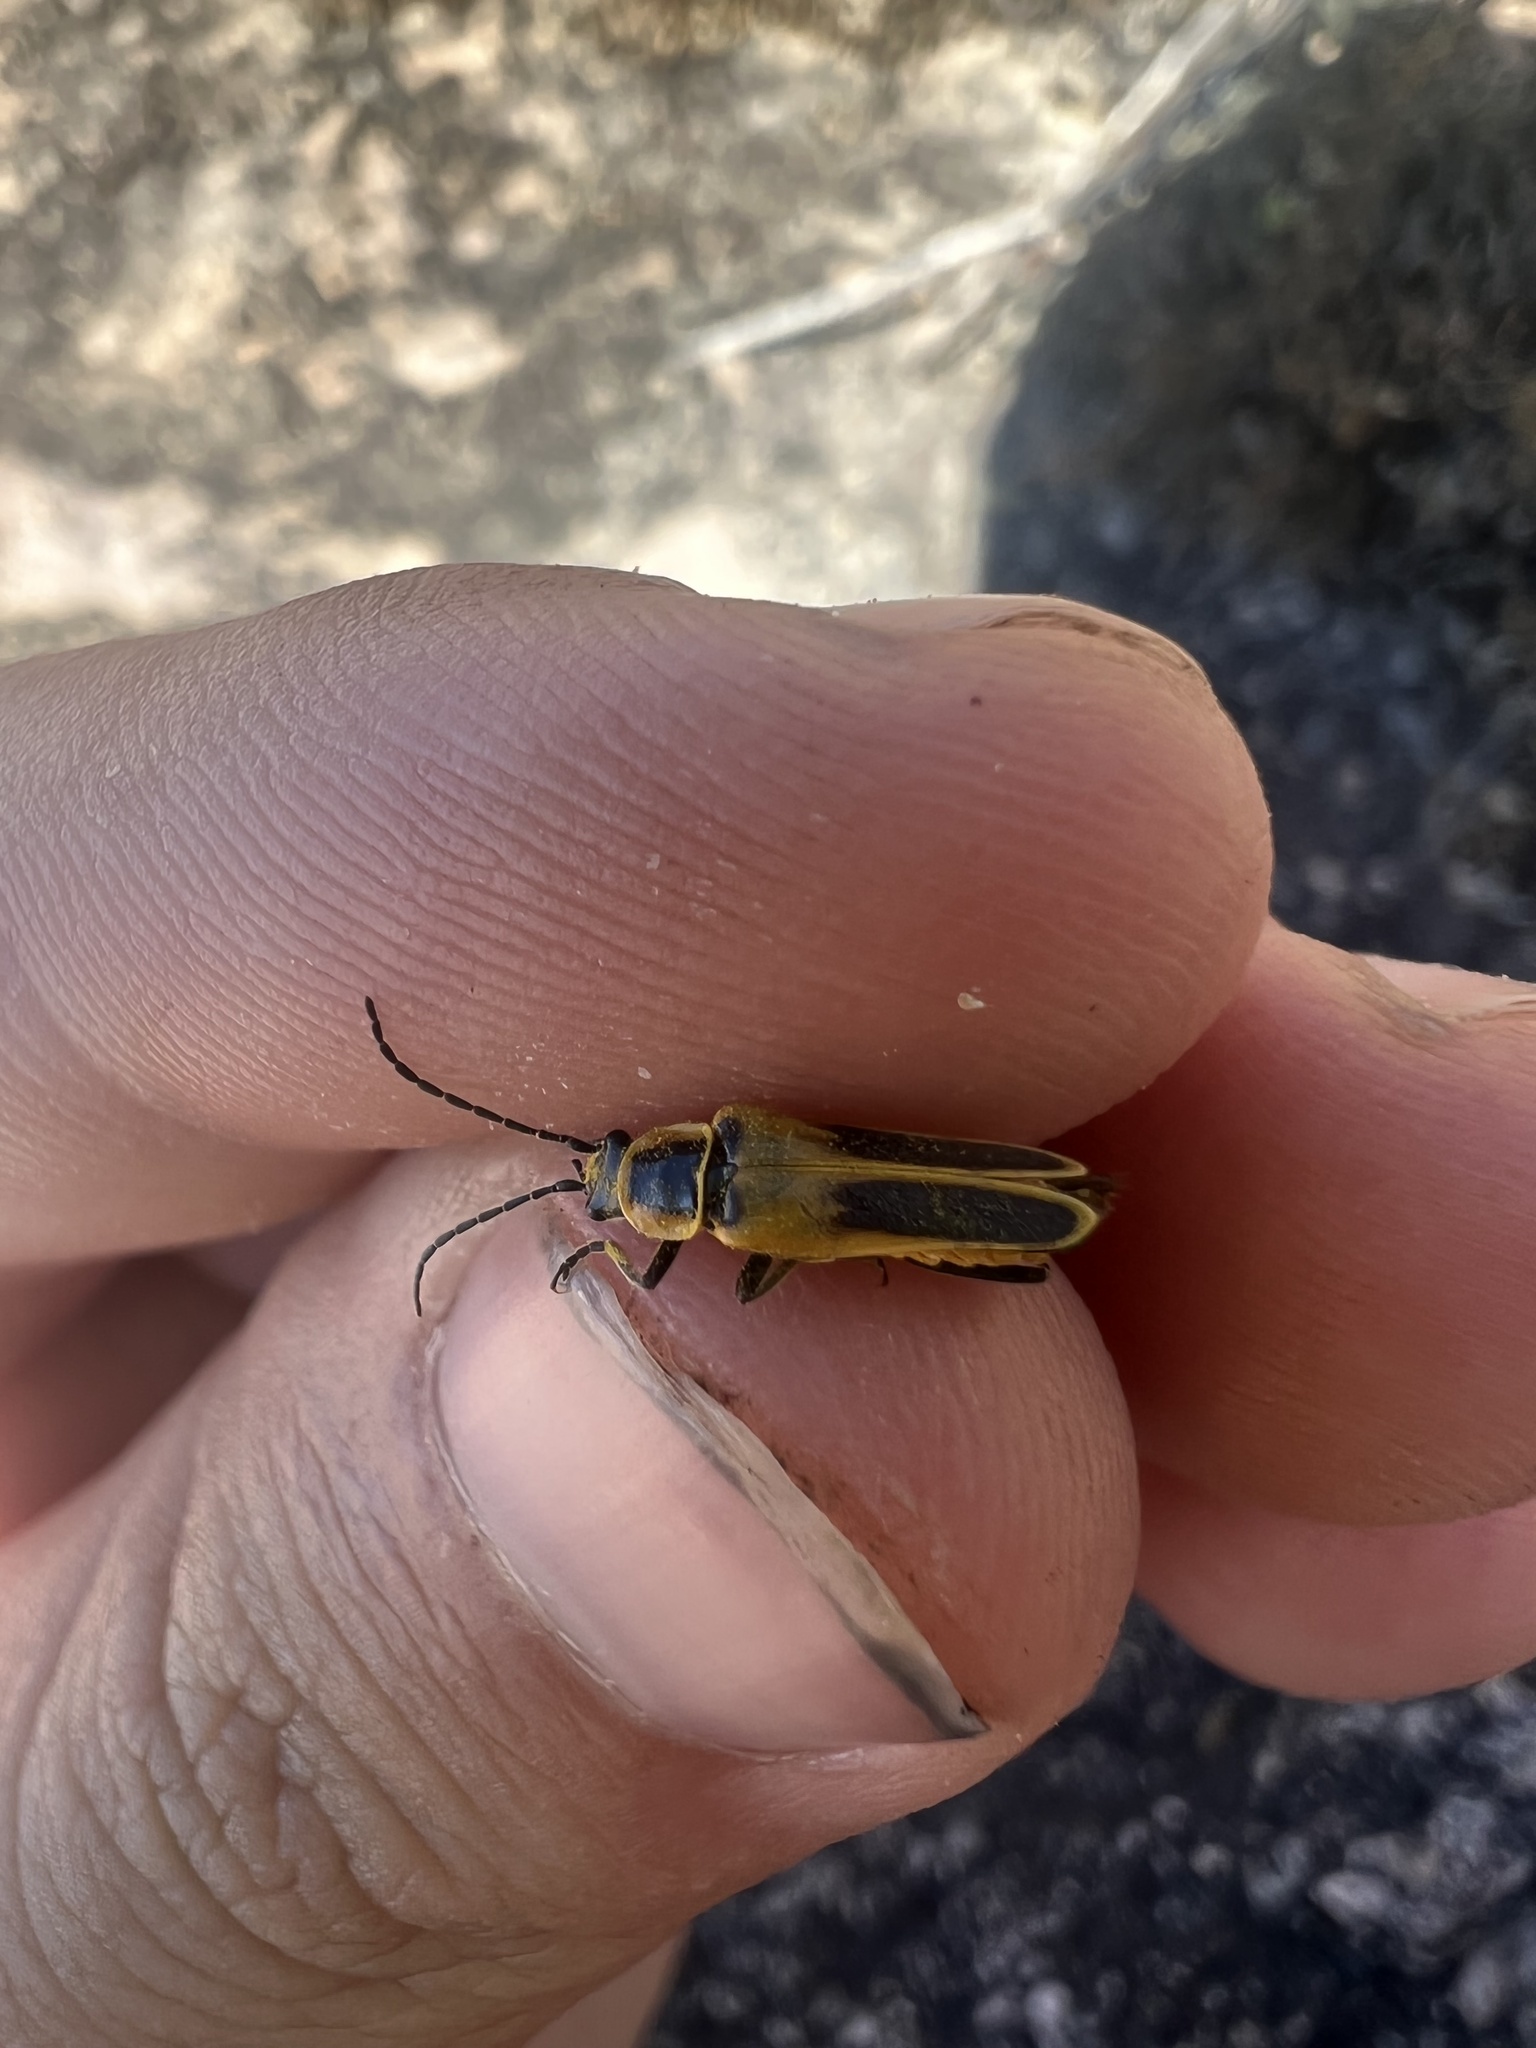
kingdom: Animalia
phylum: Arthropoda
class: Insecta
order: Coleoptera
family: Cantharidae
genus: Chauliognathus
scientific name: Chauliognathus lewisi
